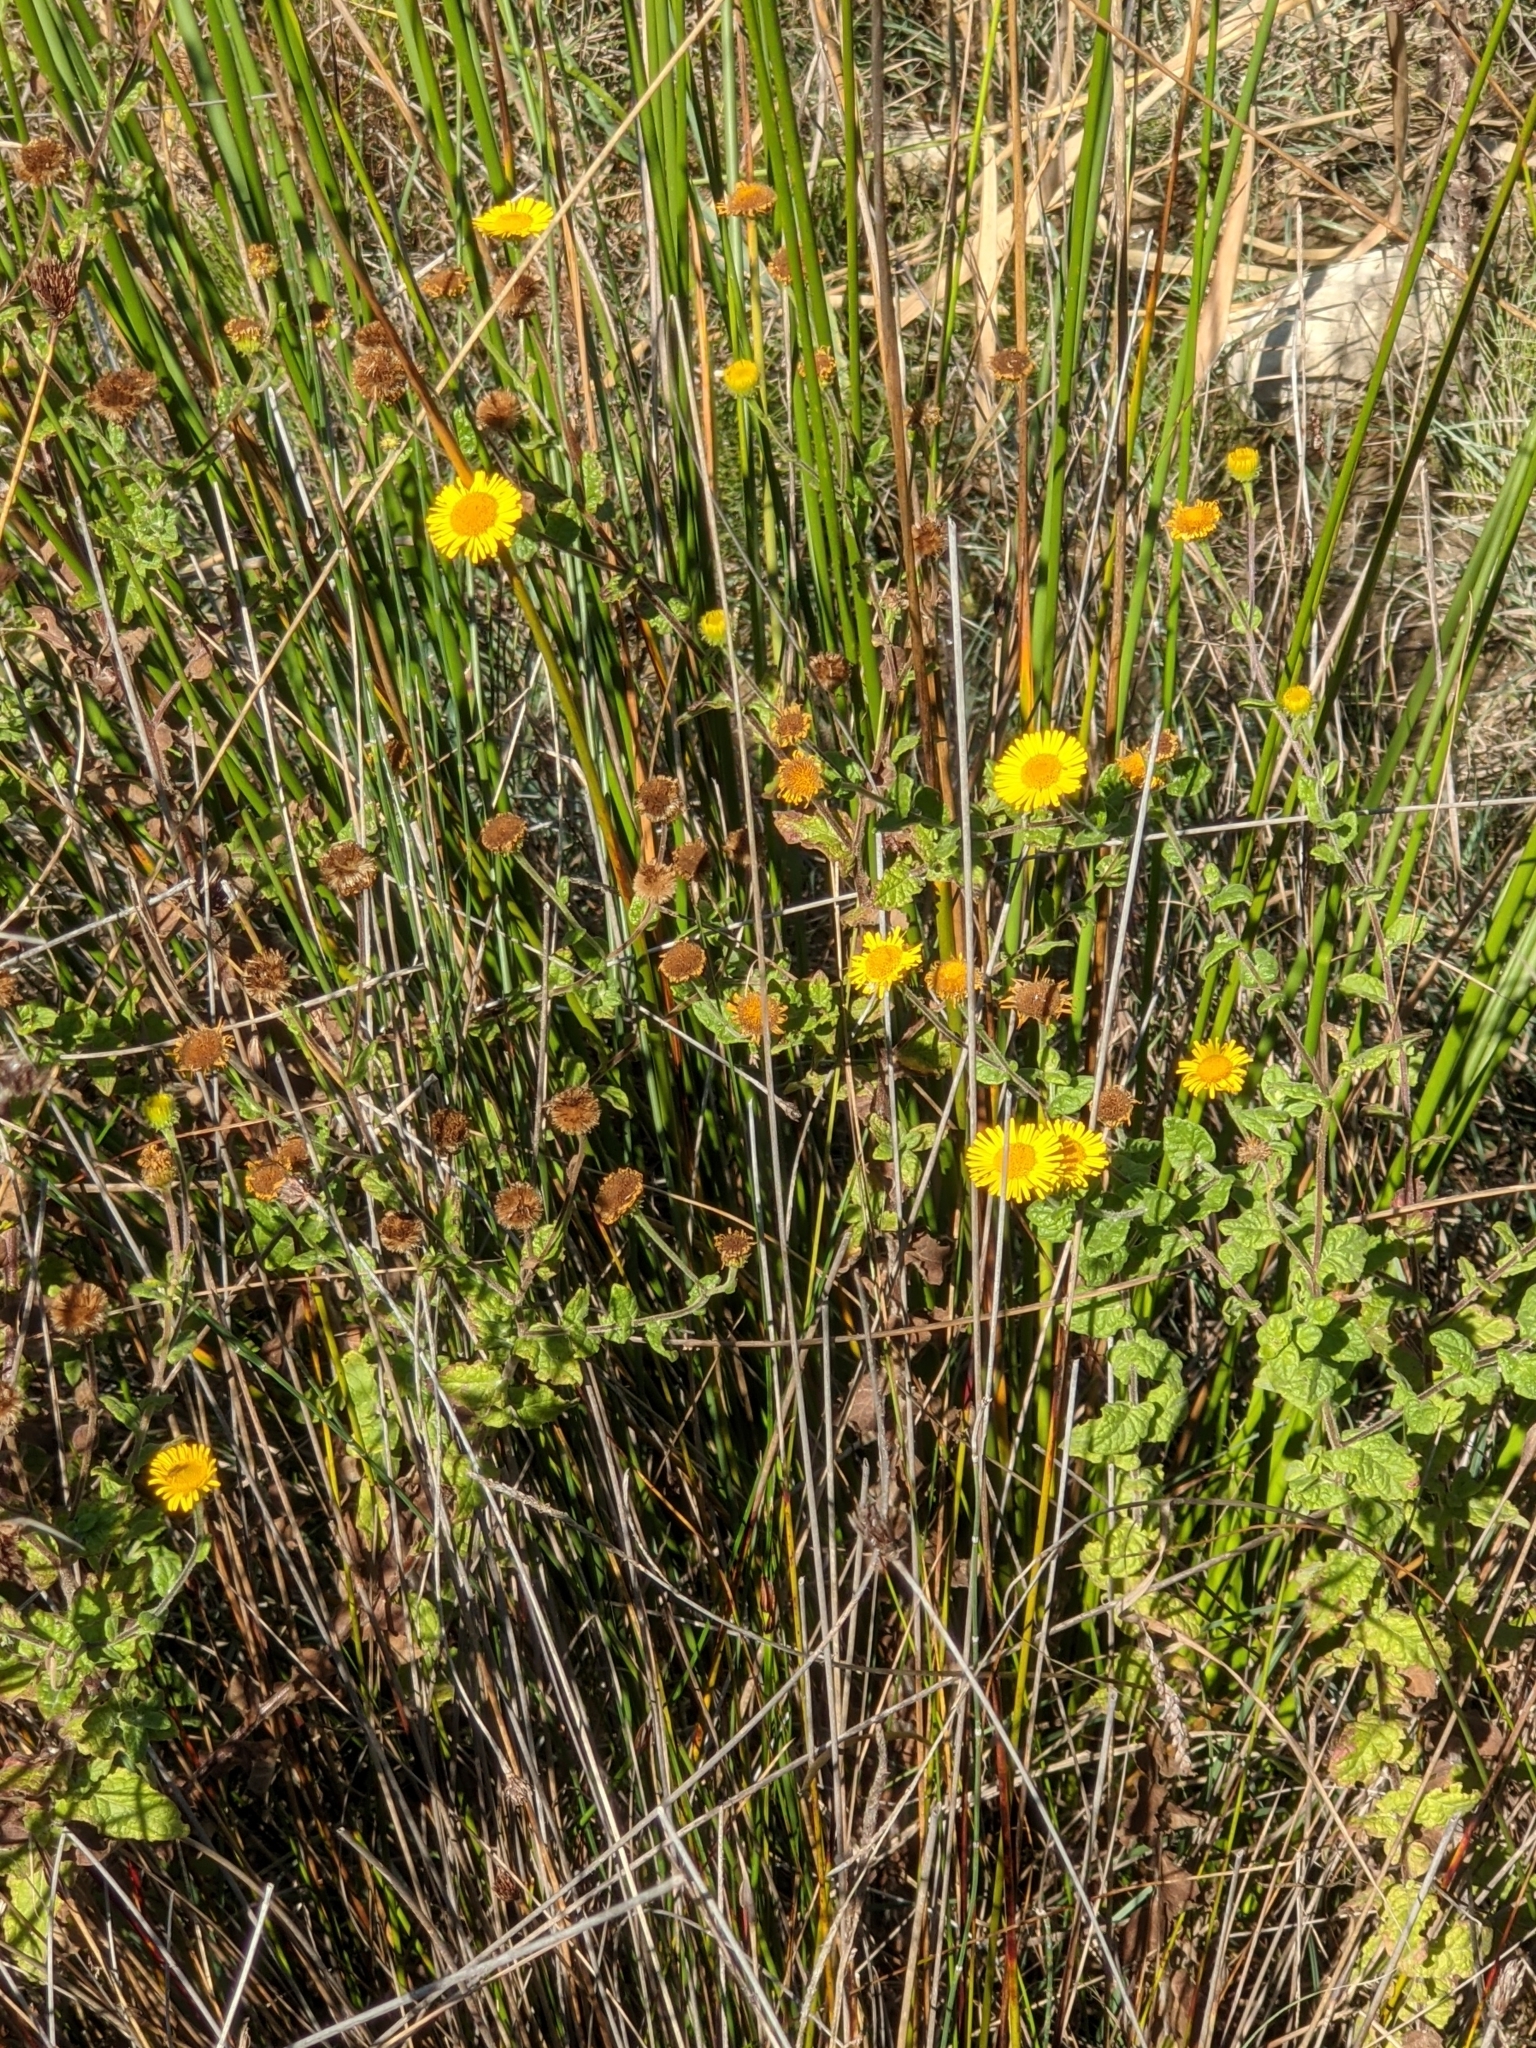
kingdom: Plantae
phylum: Tracheophyta
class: Magnoliopsida
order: Asterales
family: Asteraceae
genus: Pulicaria
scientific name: Pulicaria dysenterica
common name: Common fleabane
